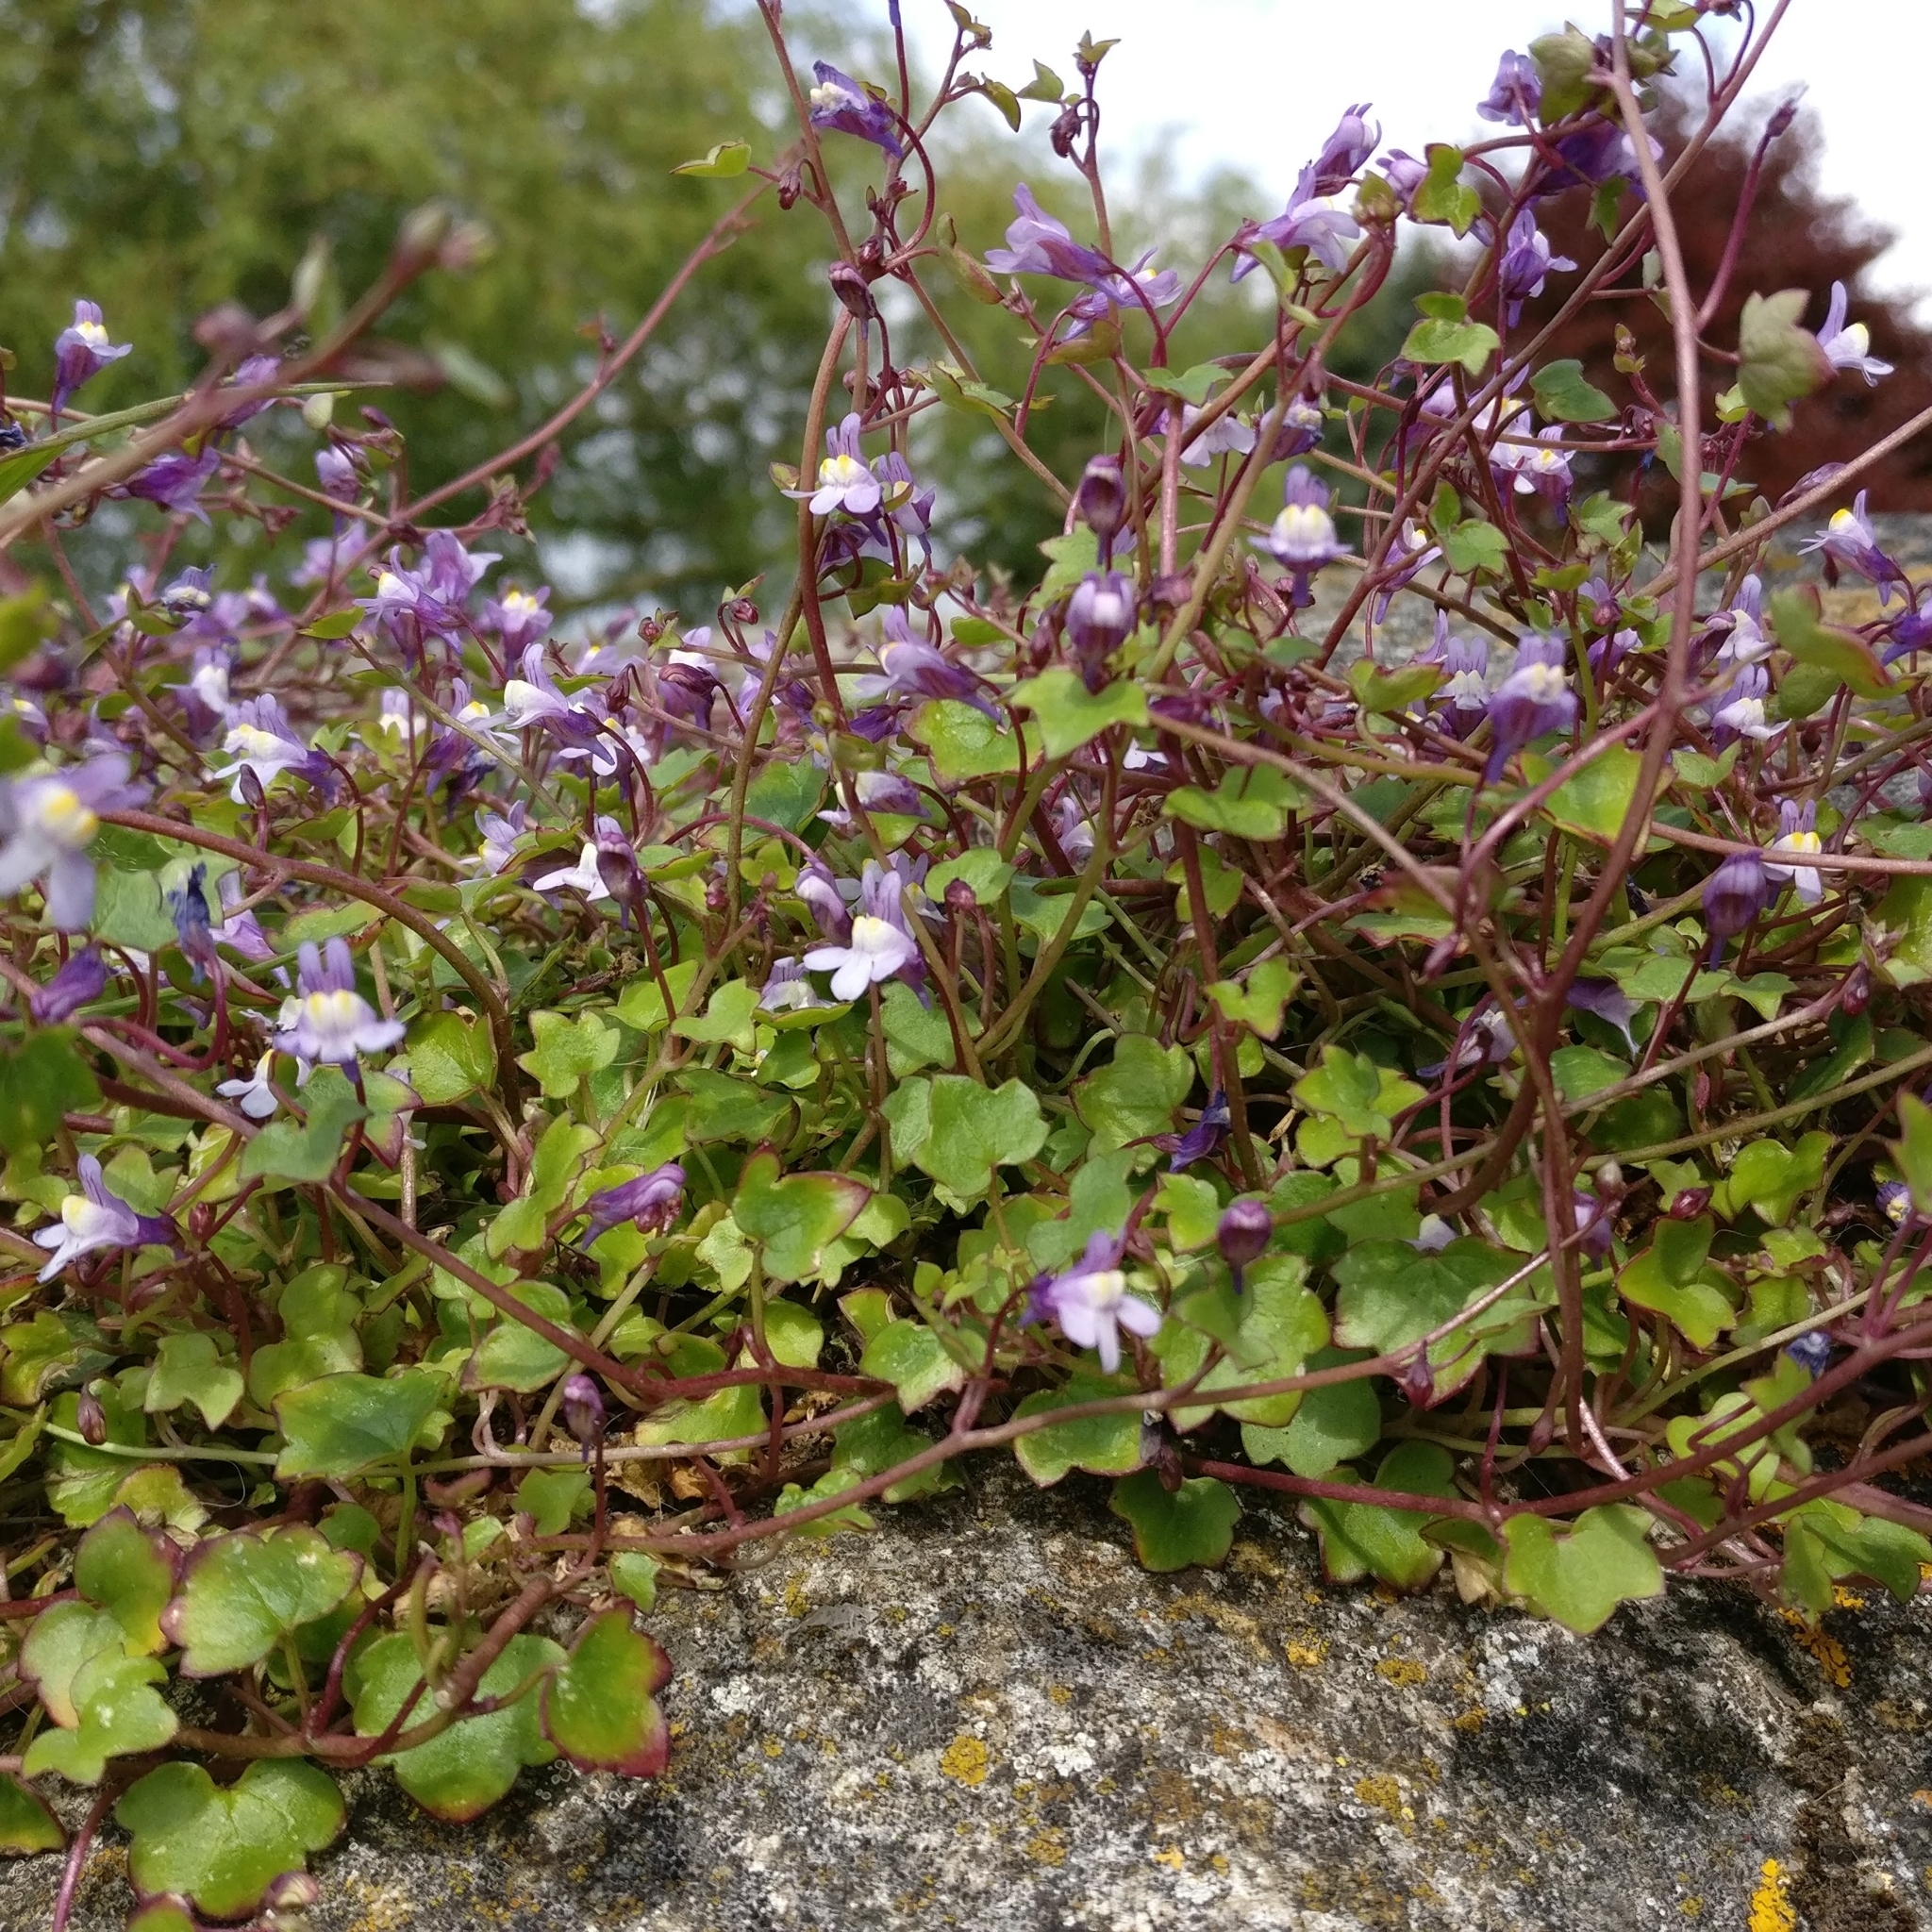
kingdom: Plantae
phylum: Tracheophyta
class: Magnoliopsida
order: Lamiales
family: Plantaginaceae
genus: Cymbalaria
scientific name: Cymbalaria muralis
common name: Ivy-leaved toadflax
